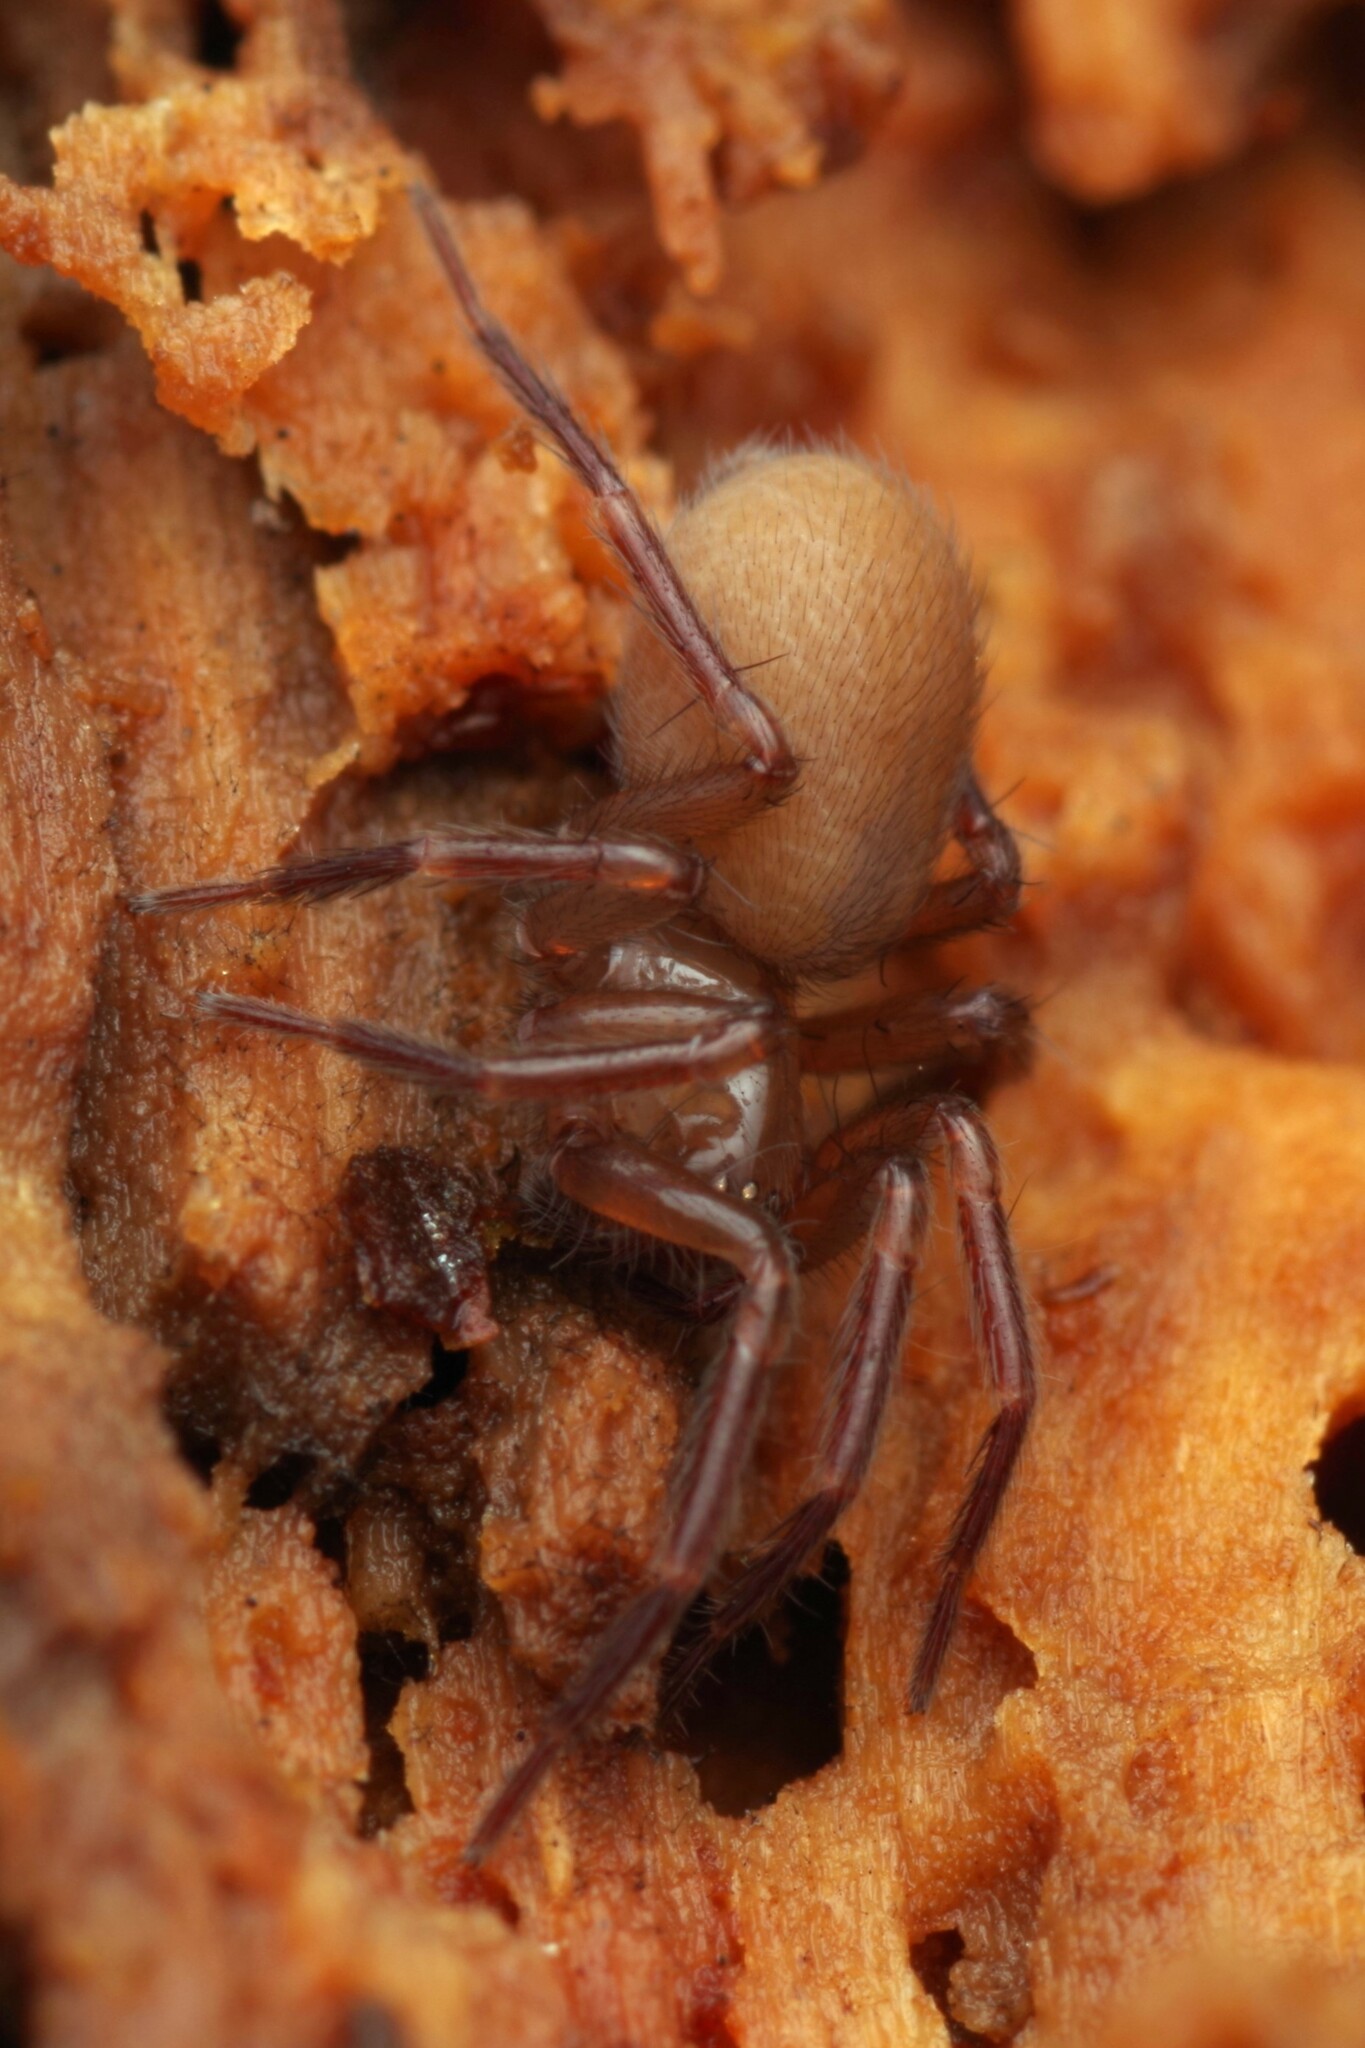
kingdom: Animalia
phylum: Arthropoda
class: Arachnida
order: Araneae
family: Hahniidae
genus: Cicurina
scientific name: Cicurina cicur
